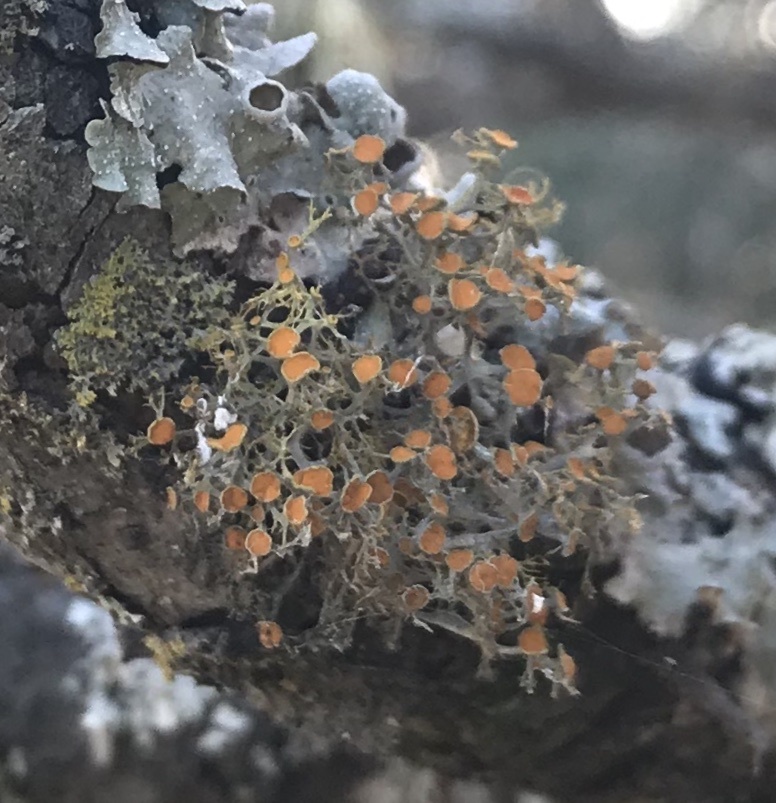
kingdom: Fungi
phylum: Ascomycota
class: Lecanoromycetes
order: Teloschistales
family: Teloschistaceae
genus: Teloschistes
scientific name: Teloschistes exilis
